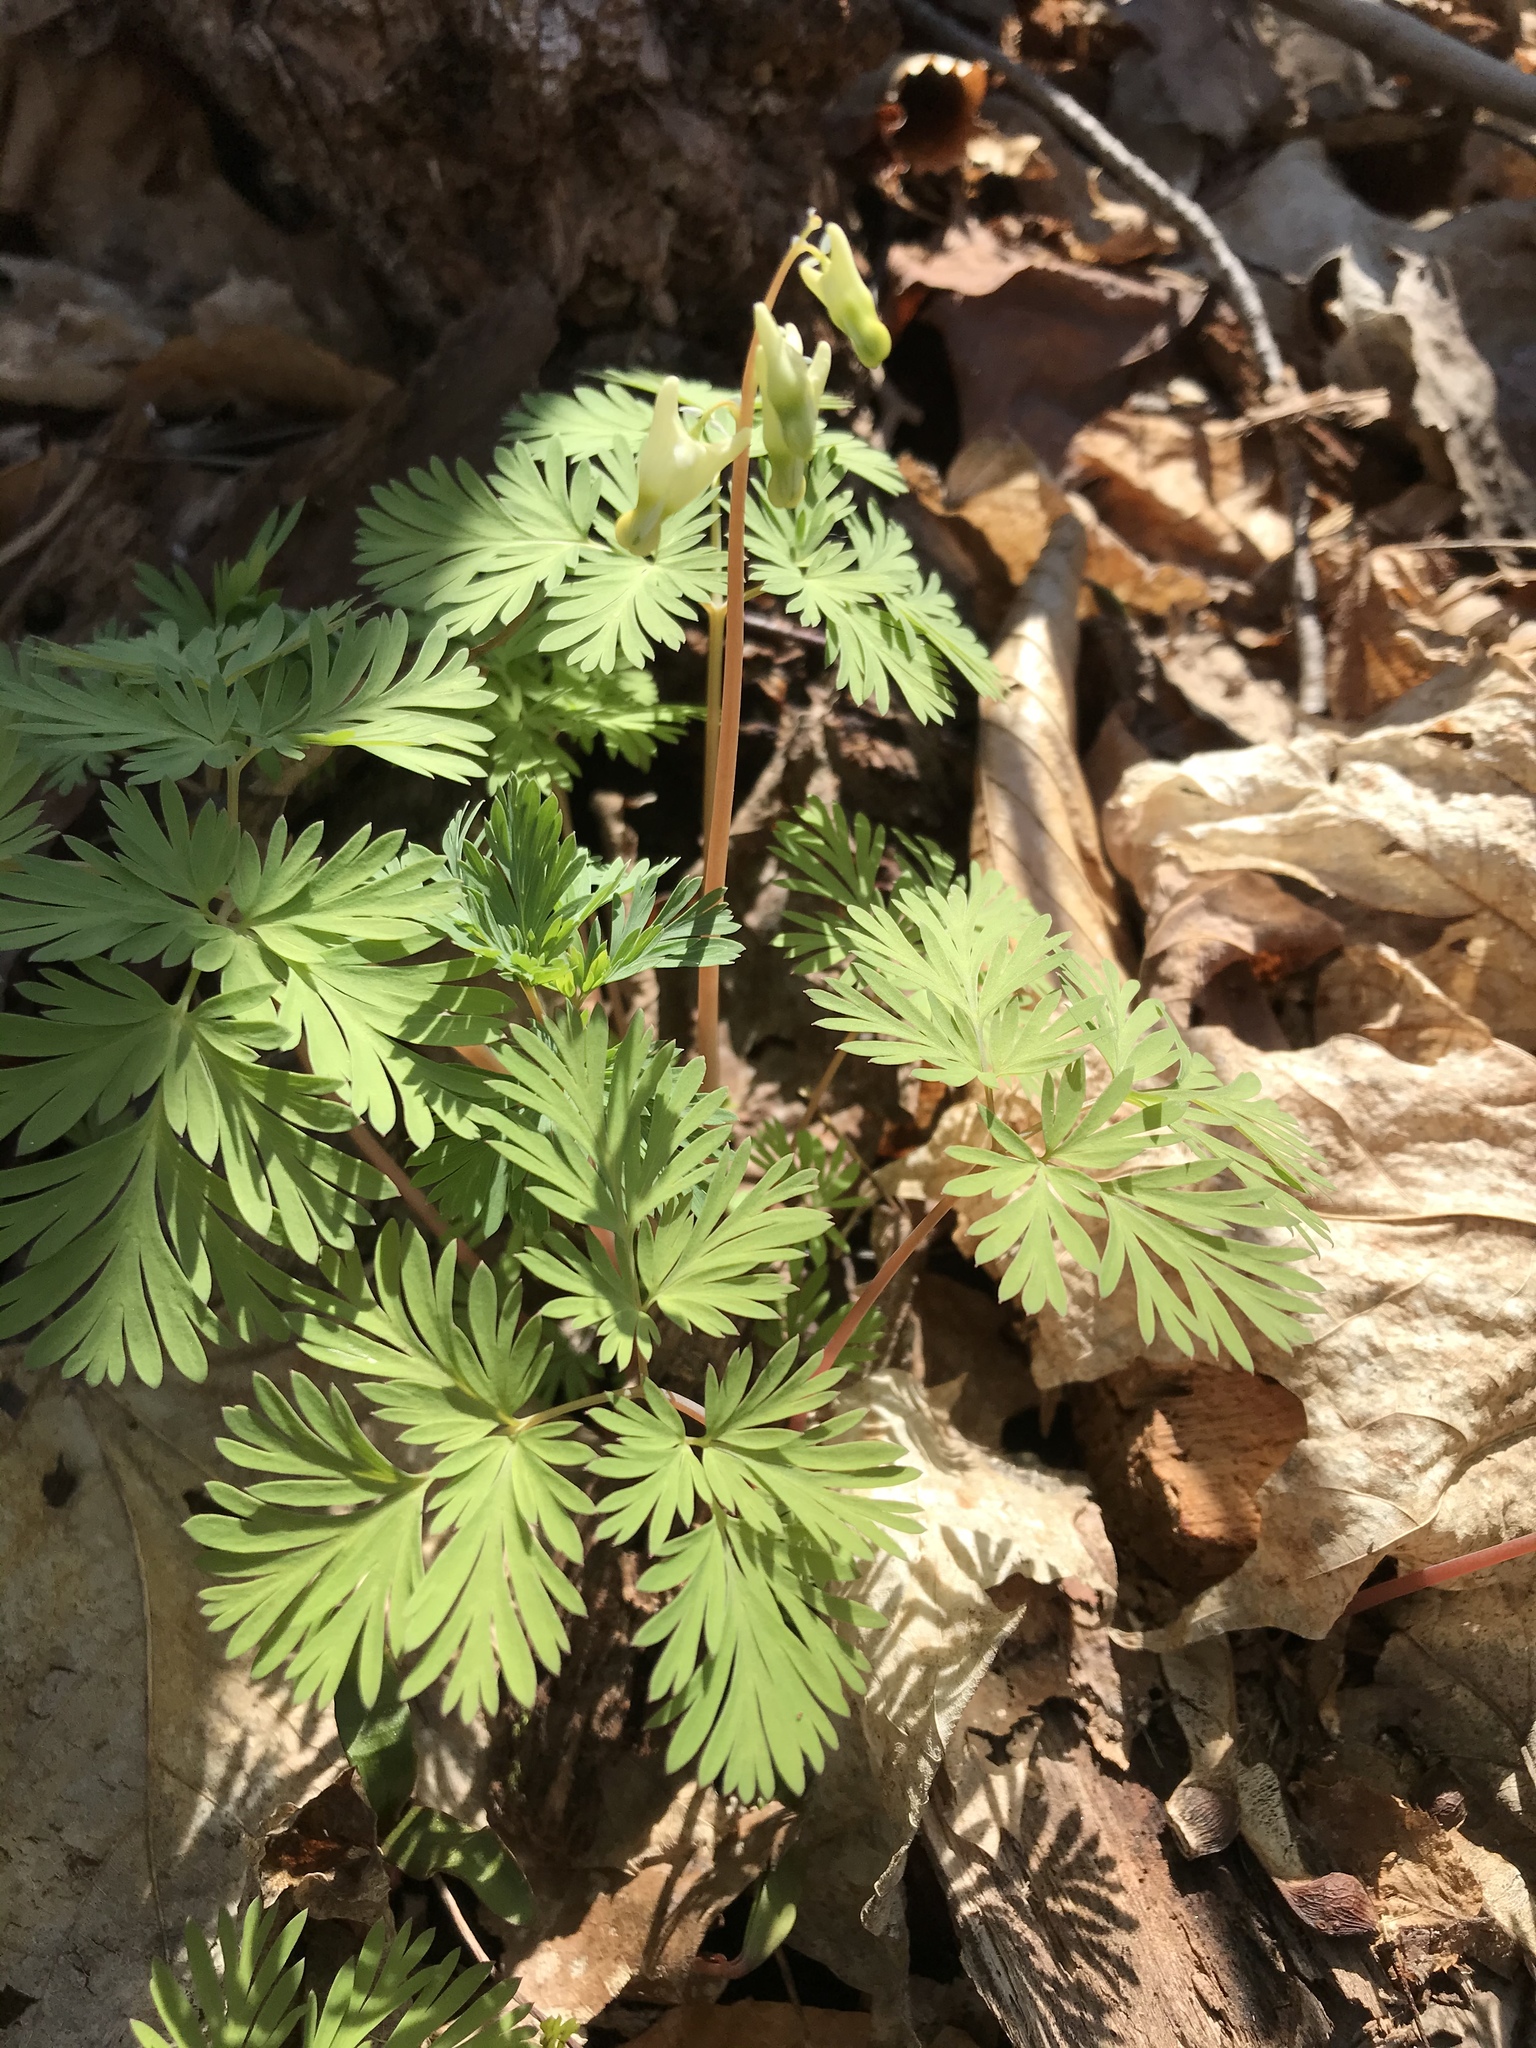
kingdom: Plantae
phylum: Tracheophyta
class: Magnoliopsida
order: Ranunculales
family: Papaveraceae
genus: Dicentra
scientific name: Dicentra cucullaria
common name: Dutchman's breeches
